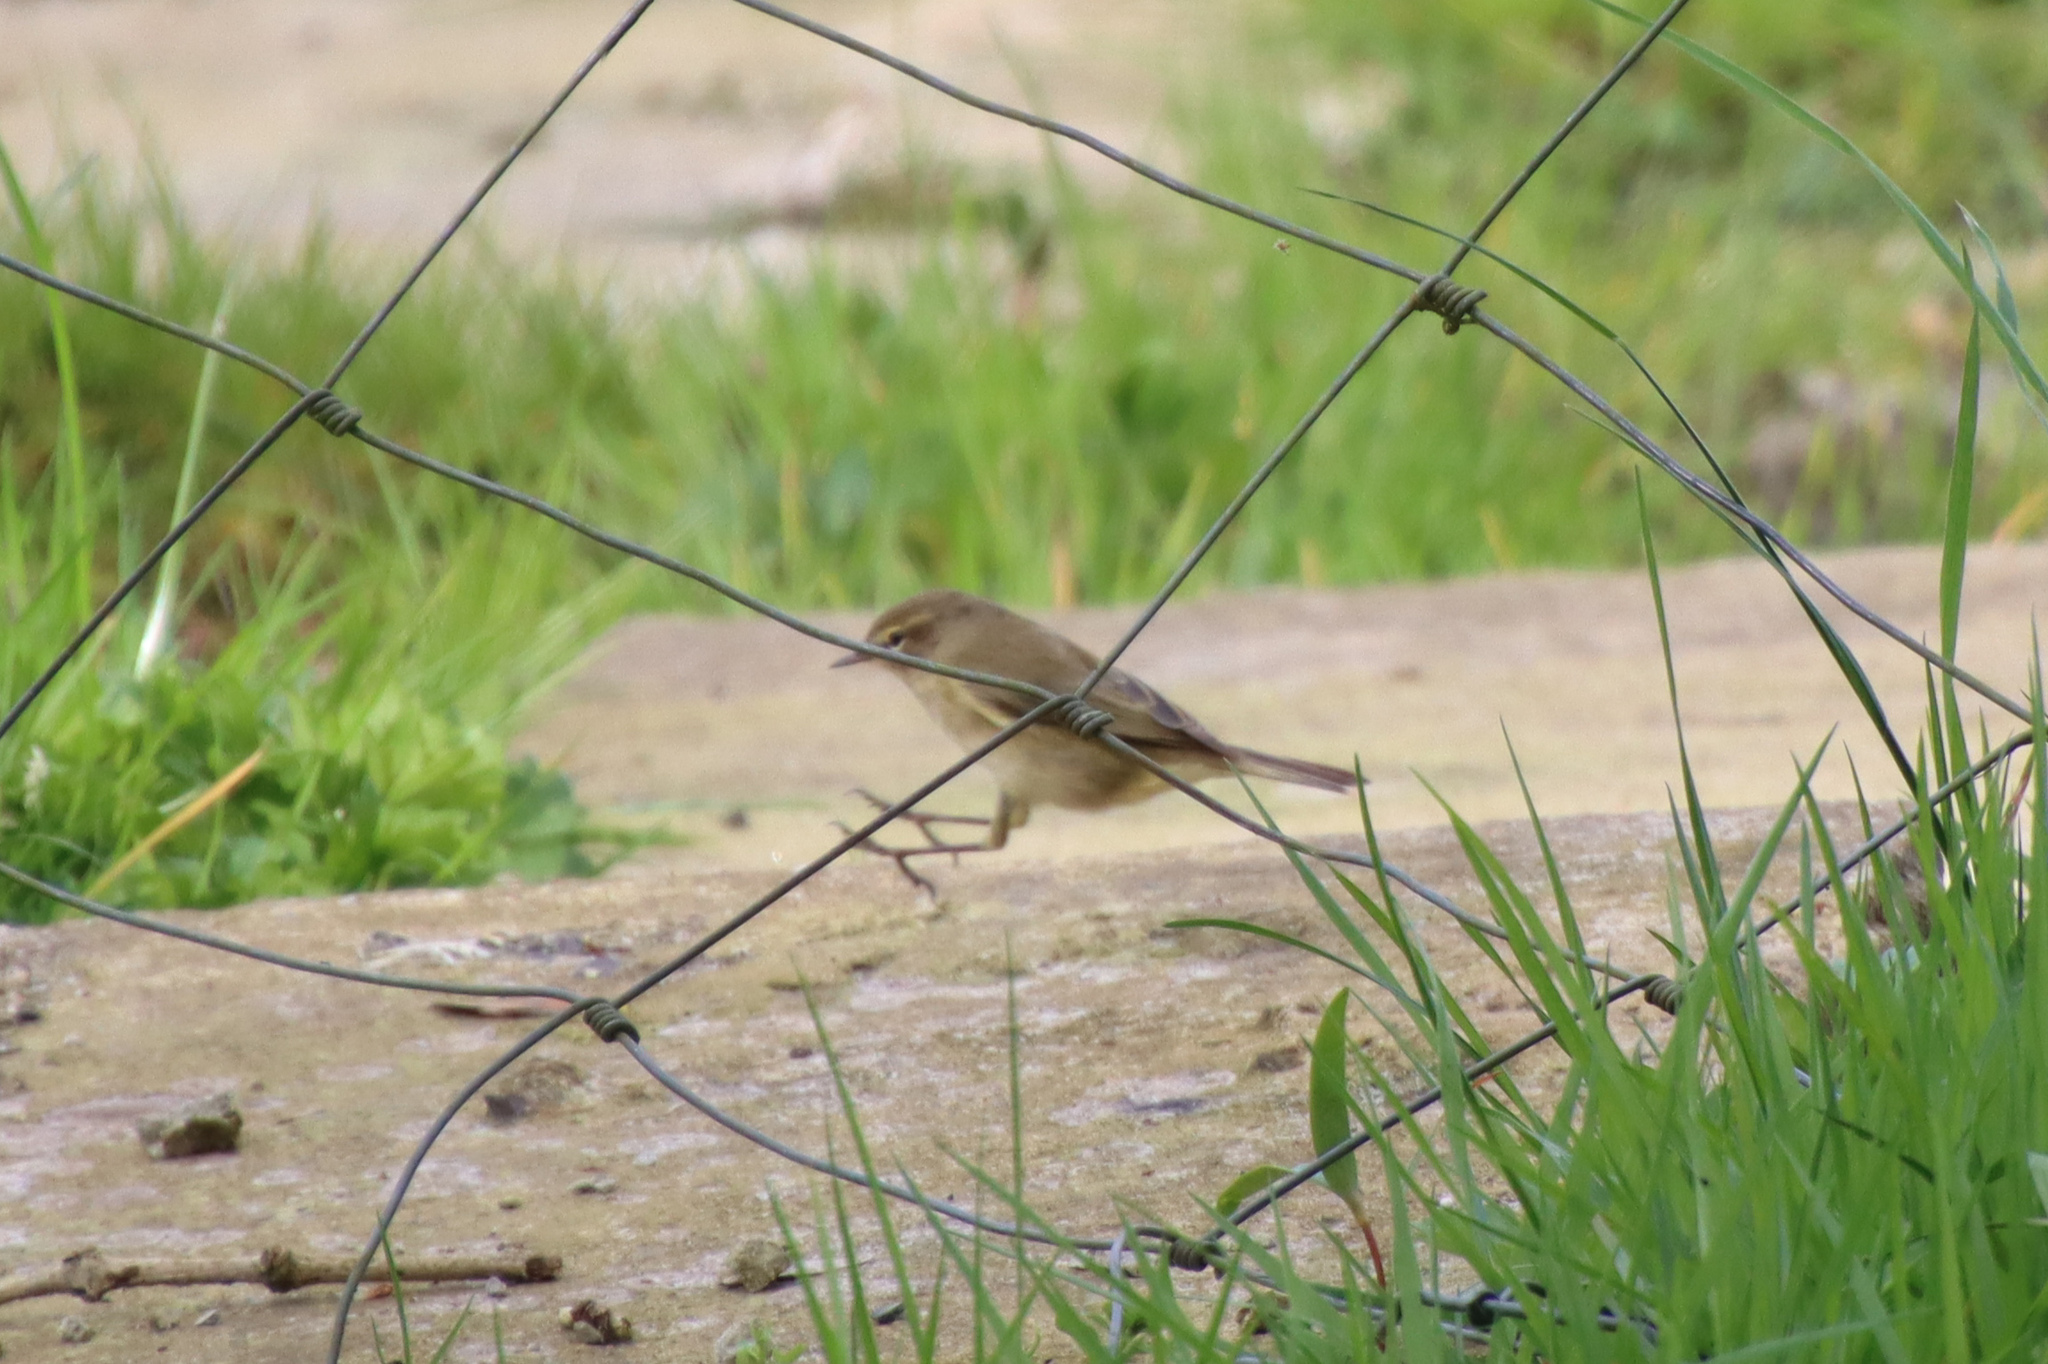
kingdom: Animalia
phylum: Chordata
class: Aves
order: Passeriformes
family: Phylloscopidae
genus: Phylloscopus
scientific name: Phylloscopus collybita
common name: Common chiffchaff
